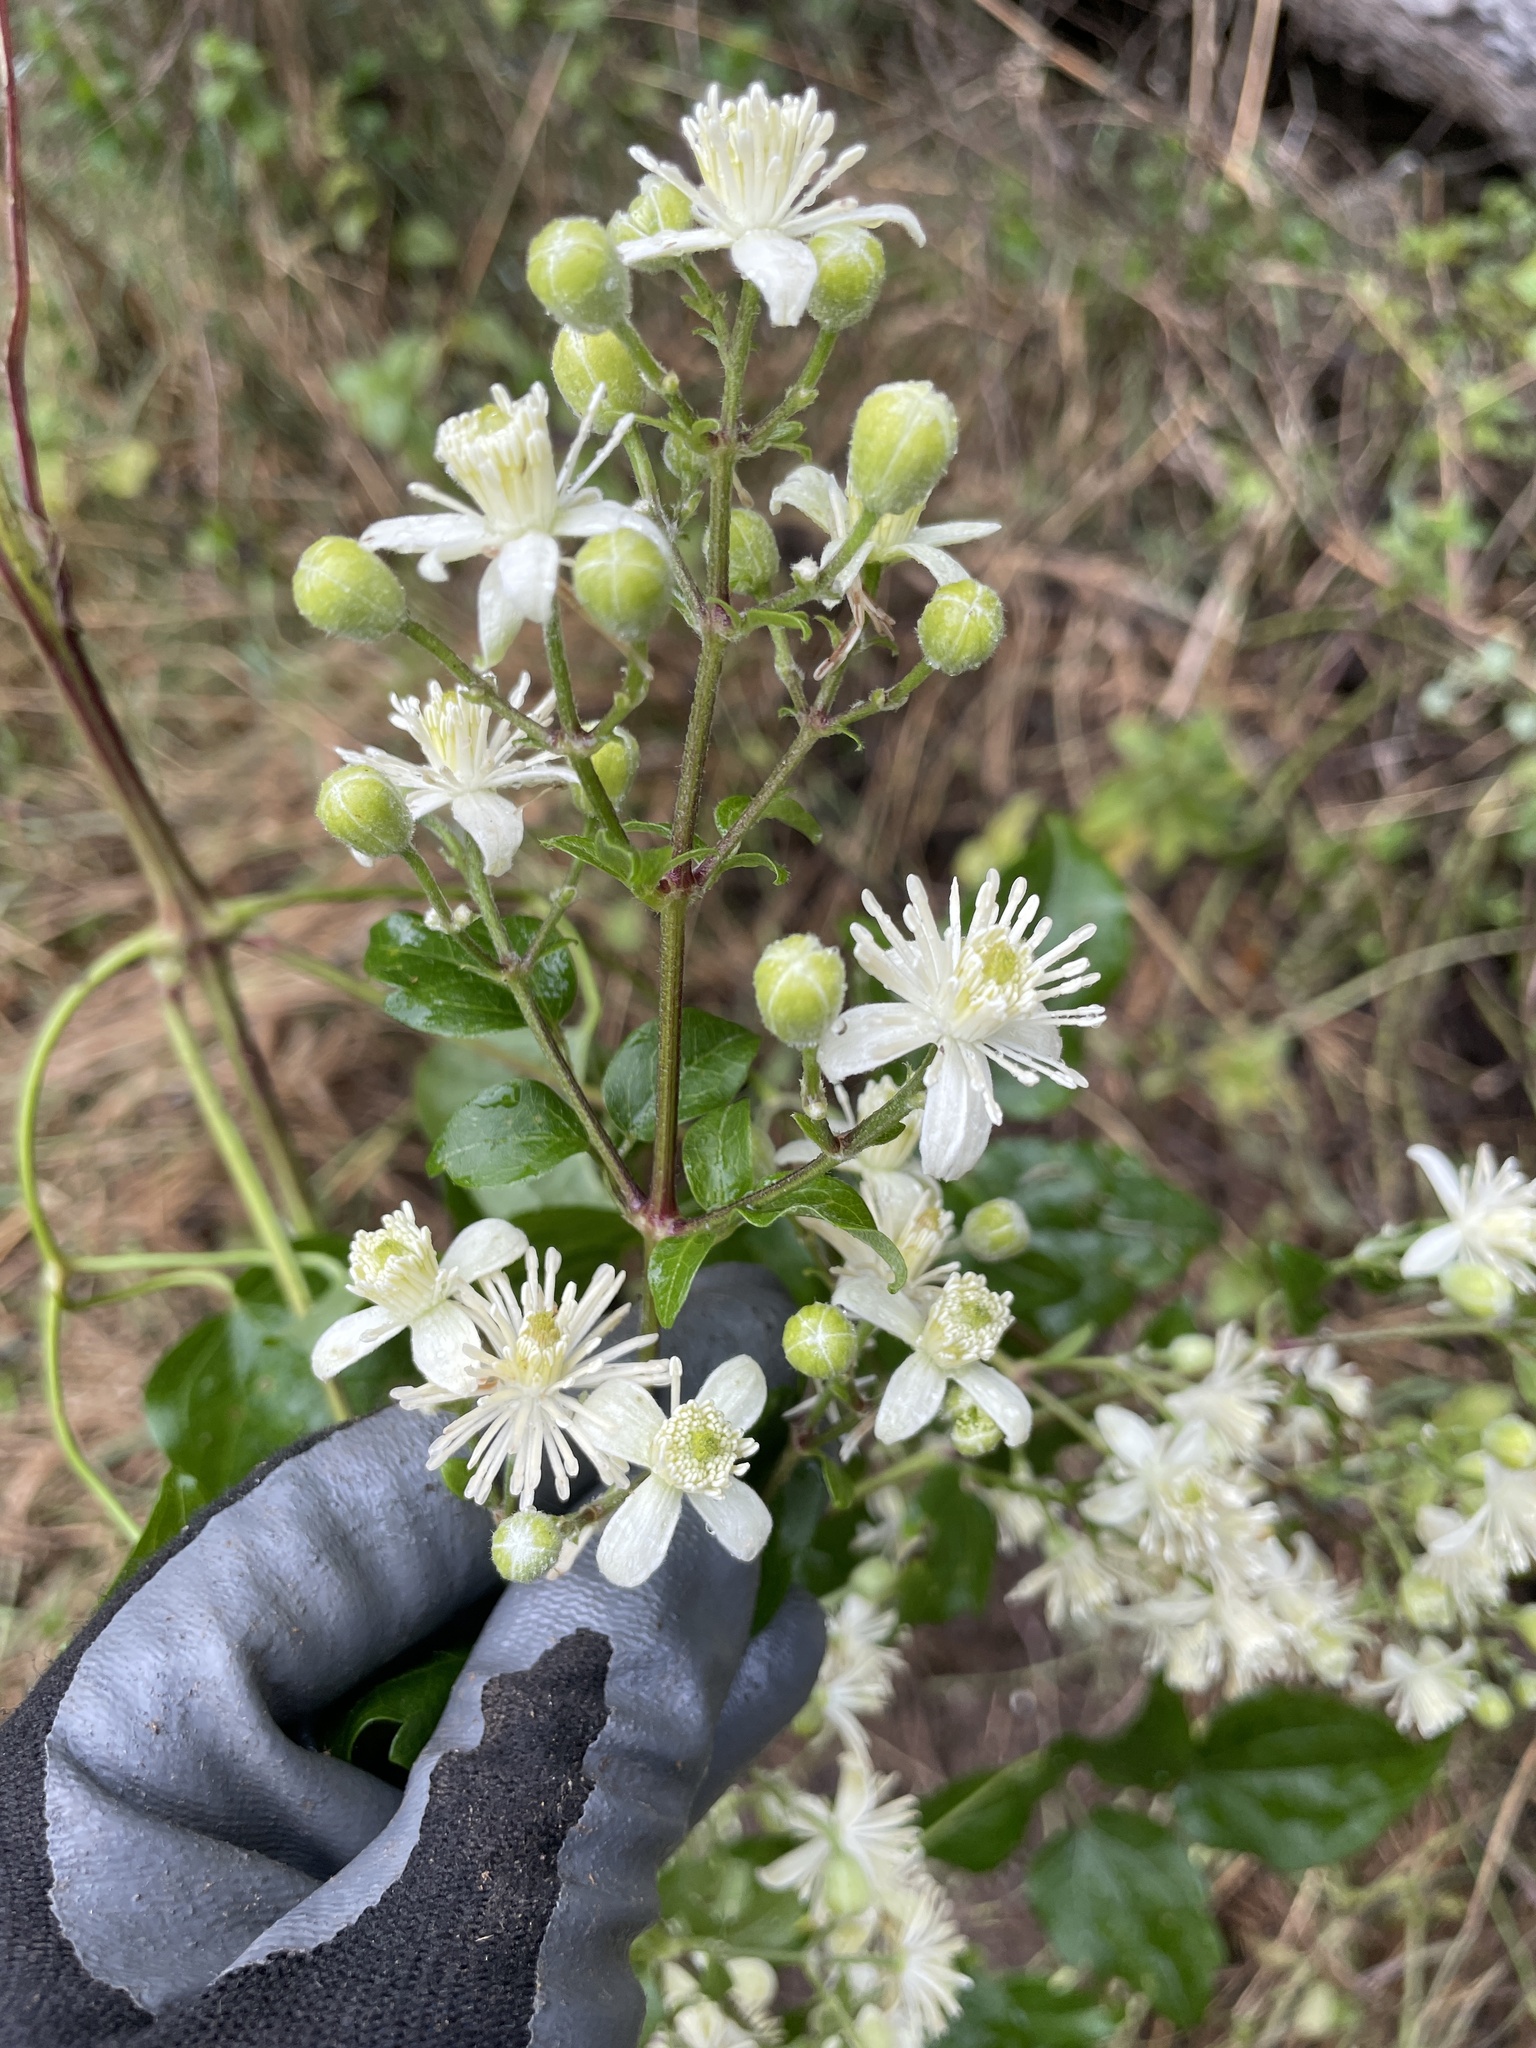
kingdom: Plantae
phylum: Tracheophyta
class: Magnoliopsida
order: Ranunculales
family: Ranunculaceae
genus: Clematis
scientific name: Clematis vitalba
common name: Evergreen clematis
